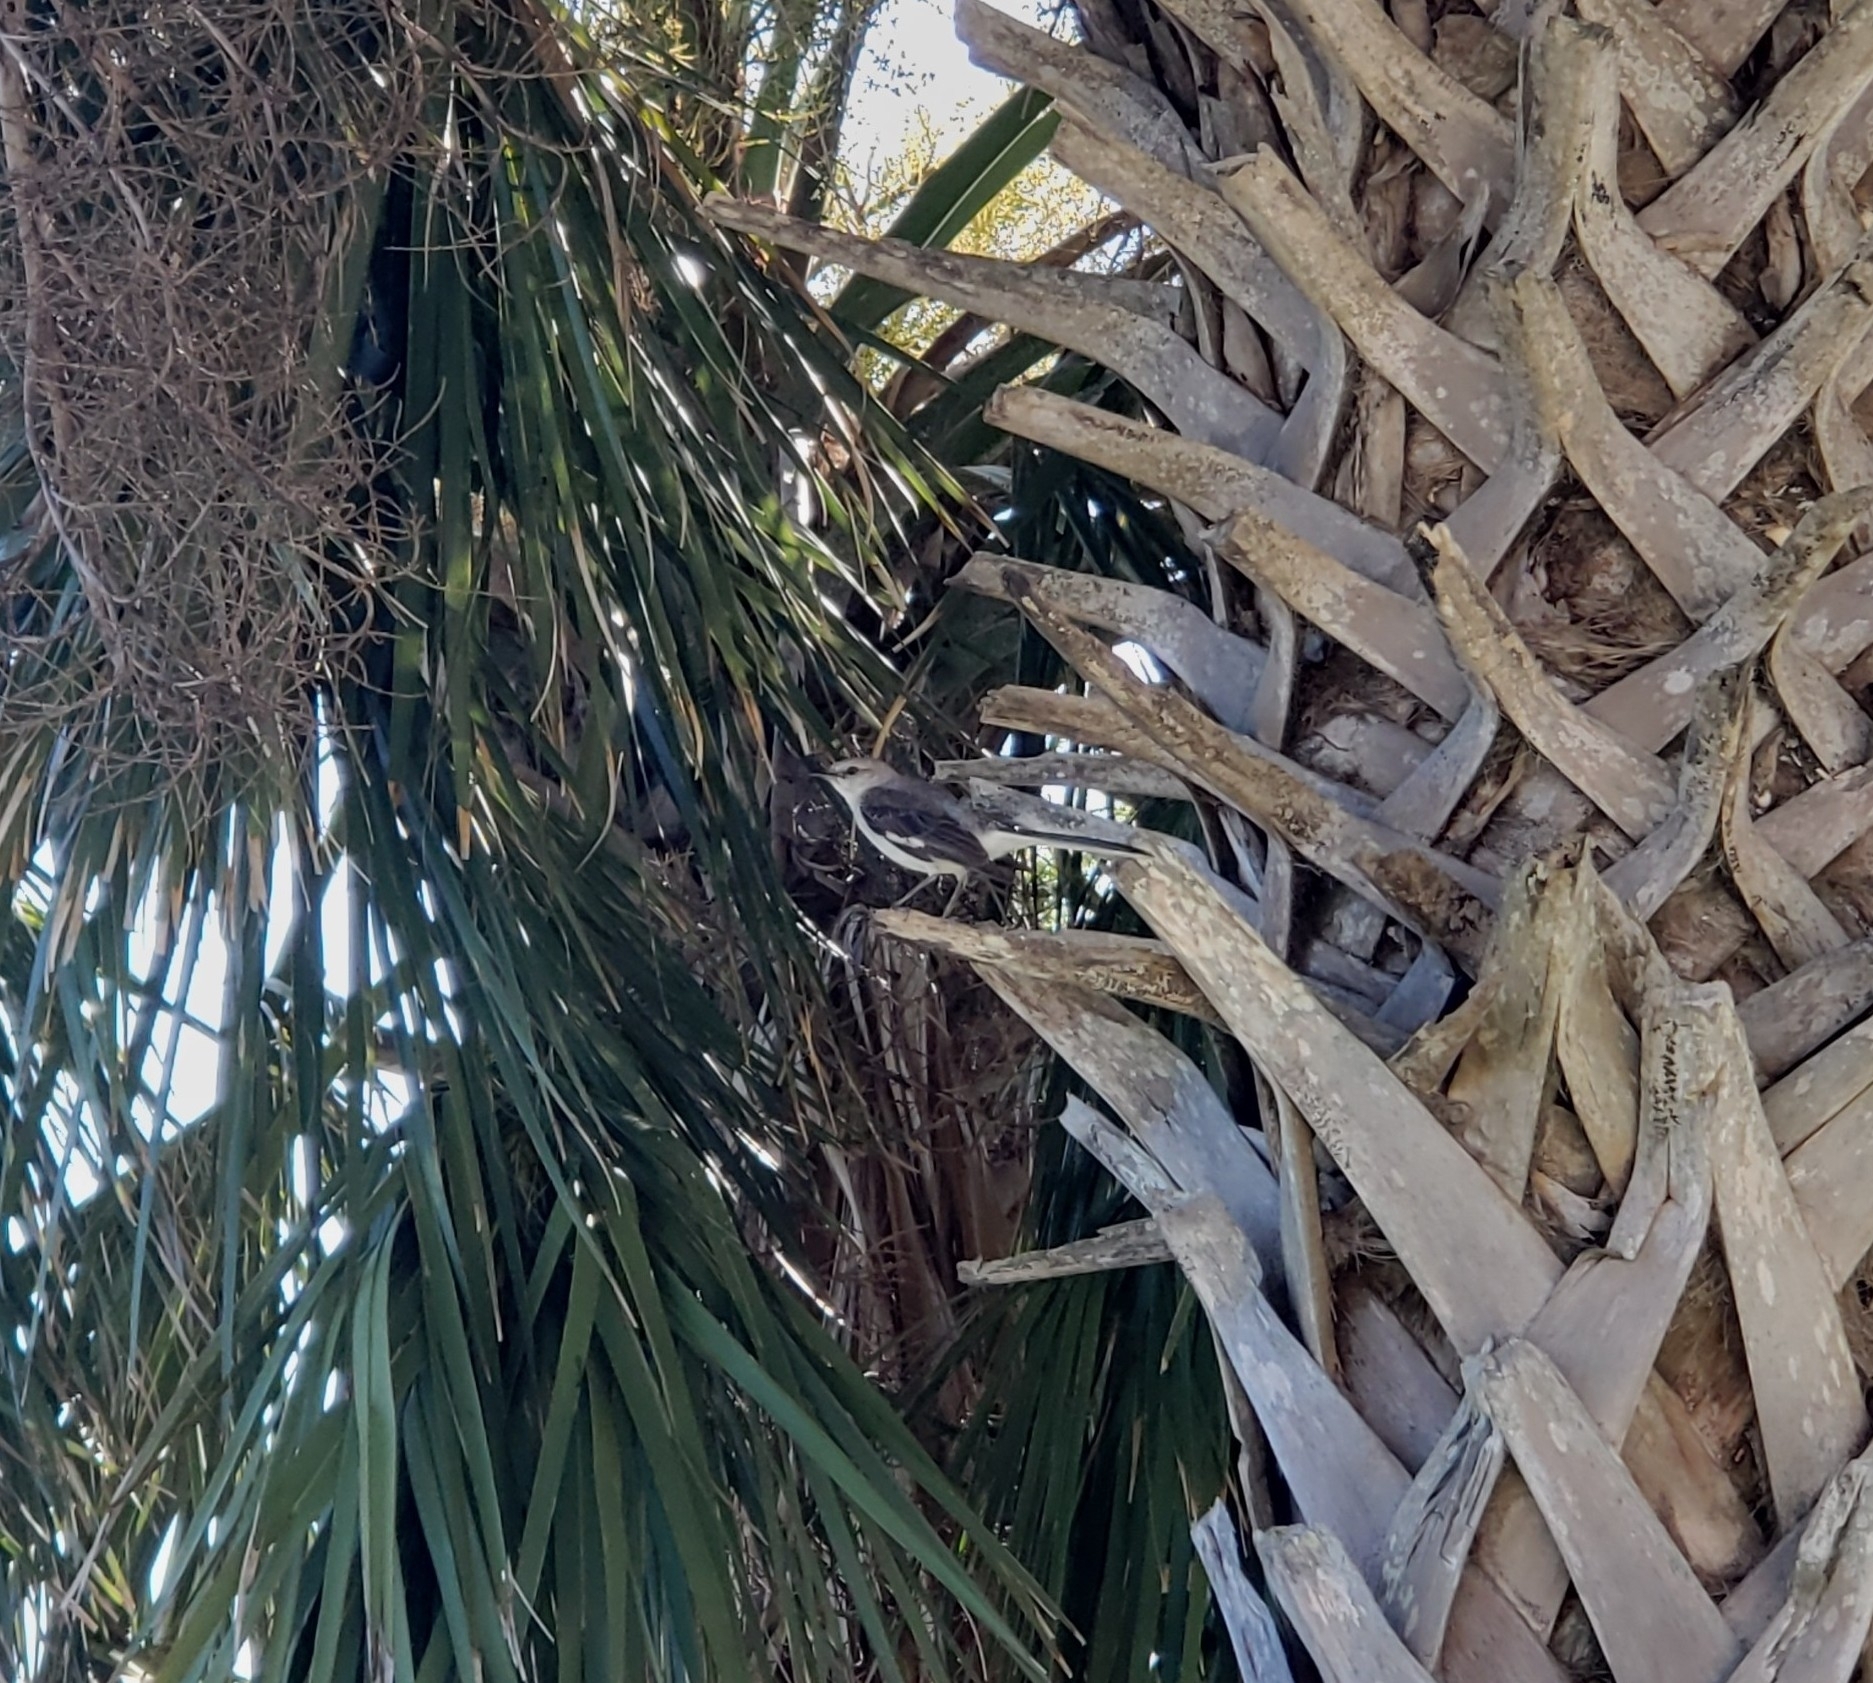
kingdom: Animalia
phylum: Chordata
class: Aves
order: Passeriformes
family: Mimidae
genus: Mimus
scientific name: Mimus polyglottos
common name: Northern mockingbird
